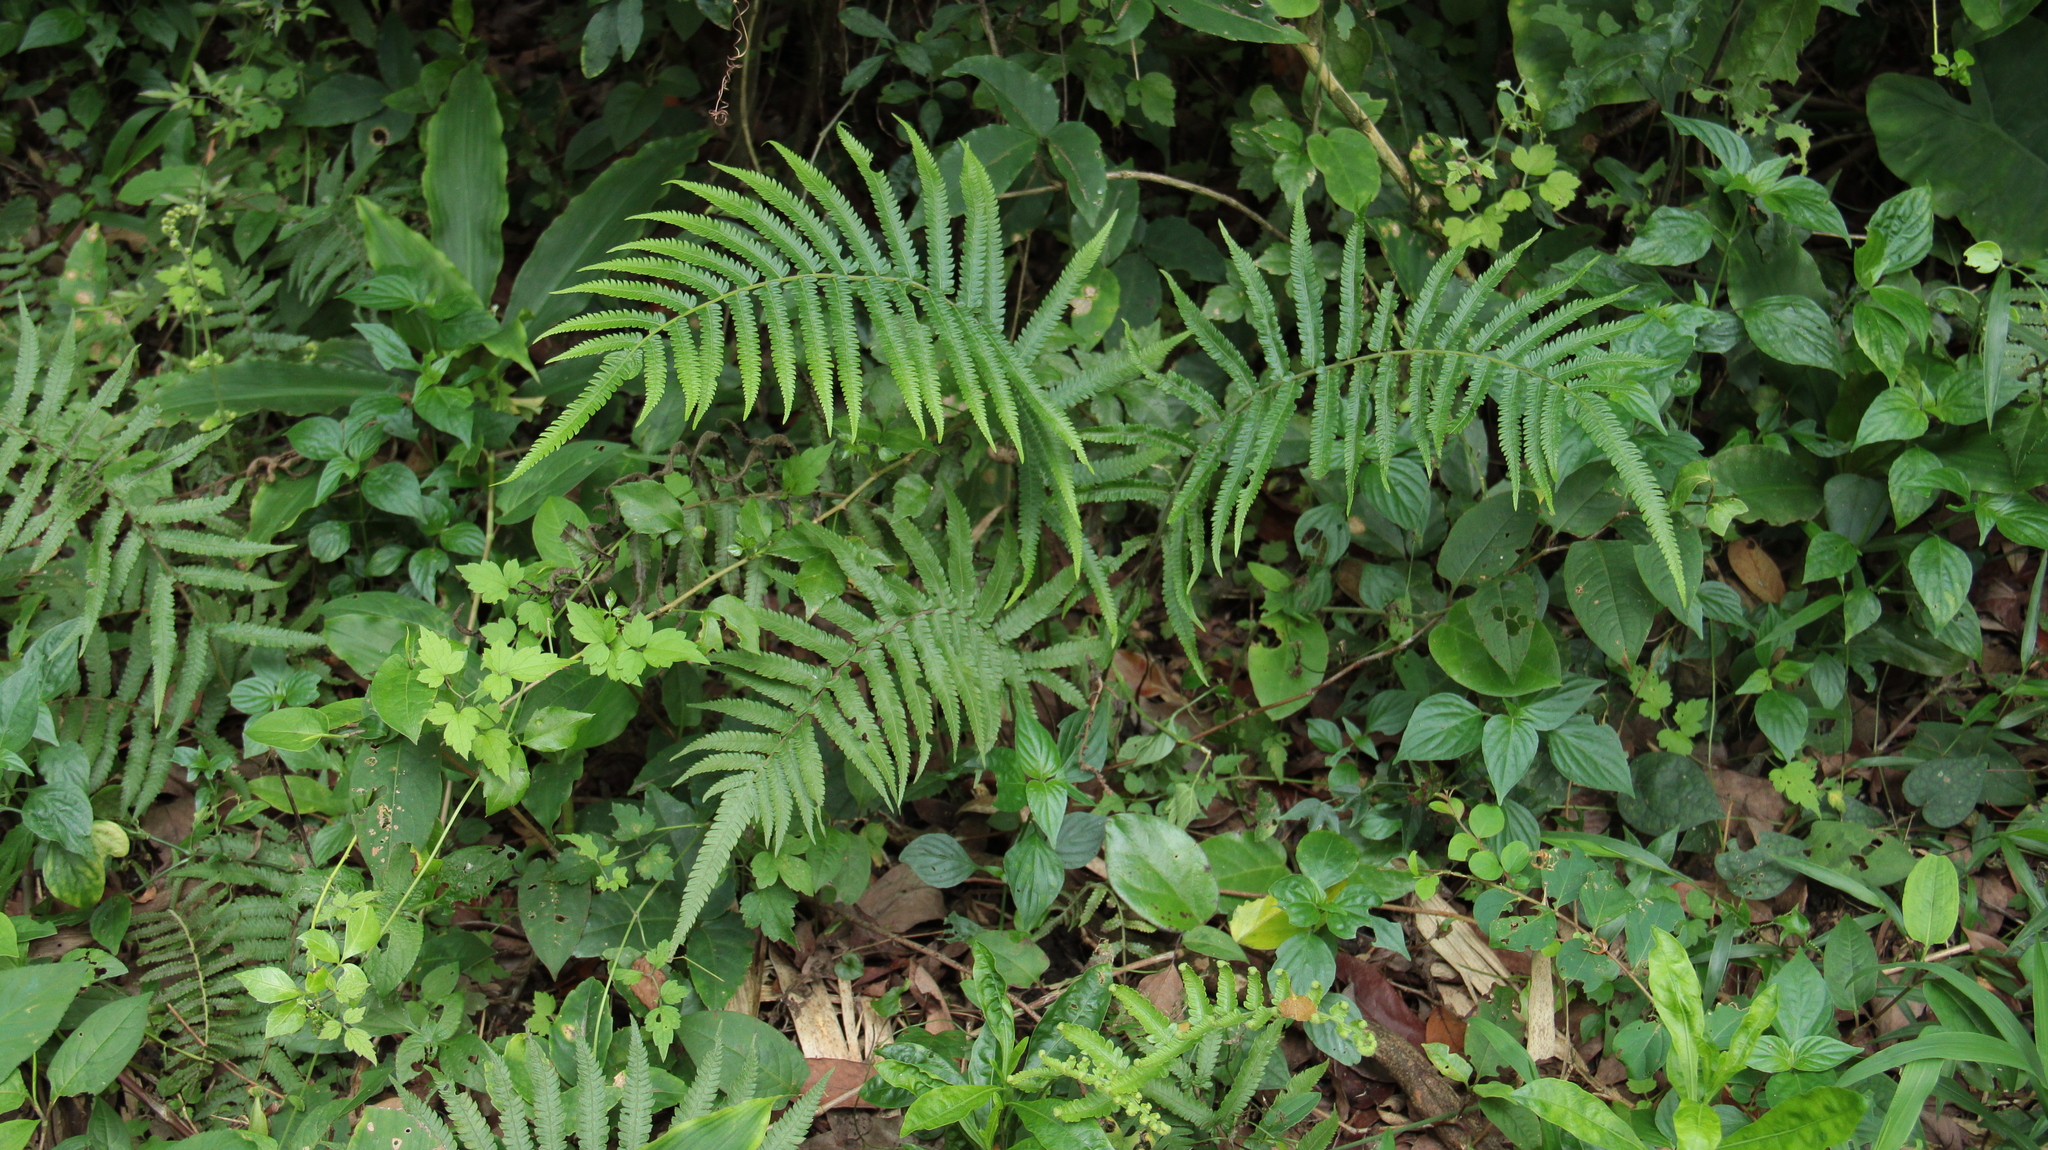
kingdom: Plantae
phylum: Tracheophyta
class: Polypodiopsida
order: Polypodiales
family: Thelypteridaceae
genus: Christella
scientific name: Christella acuminata
